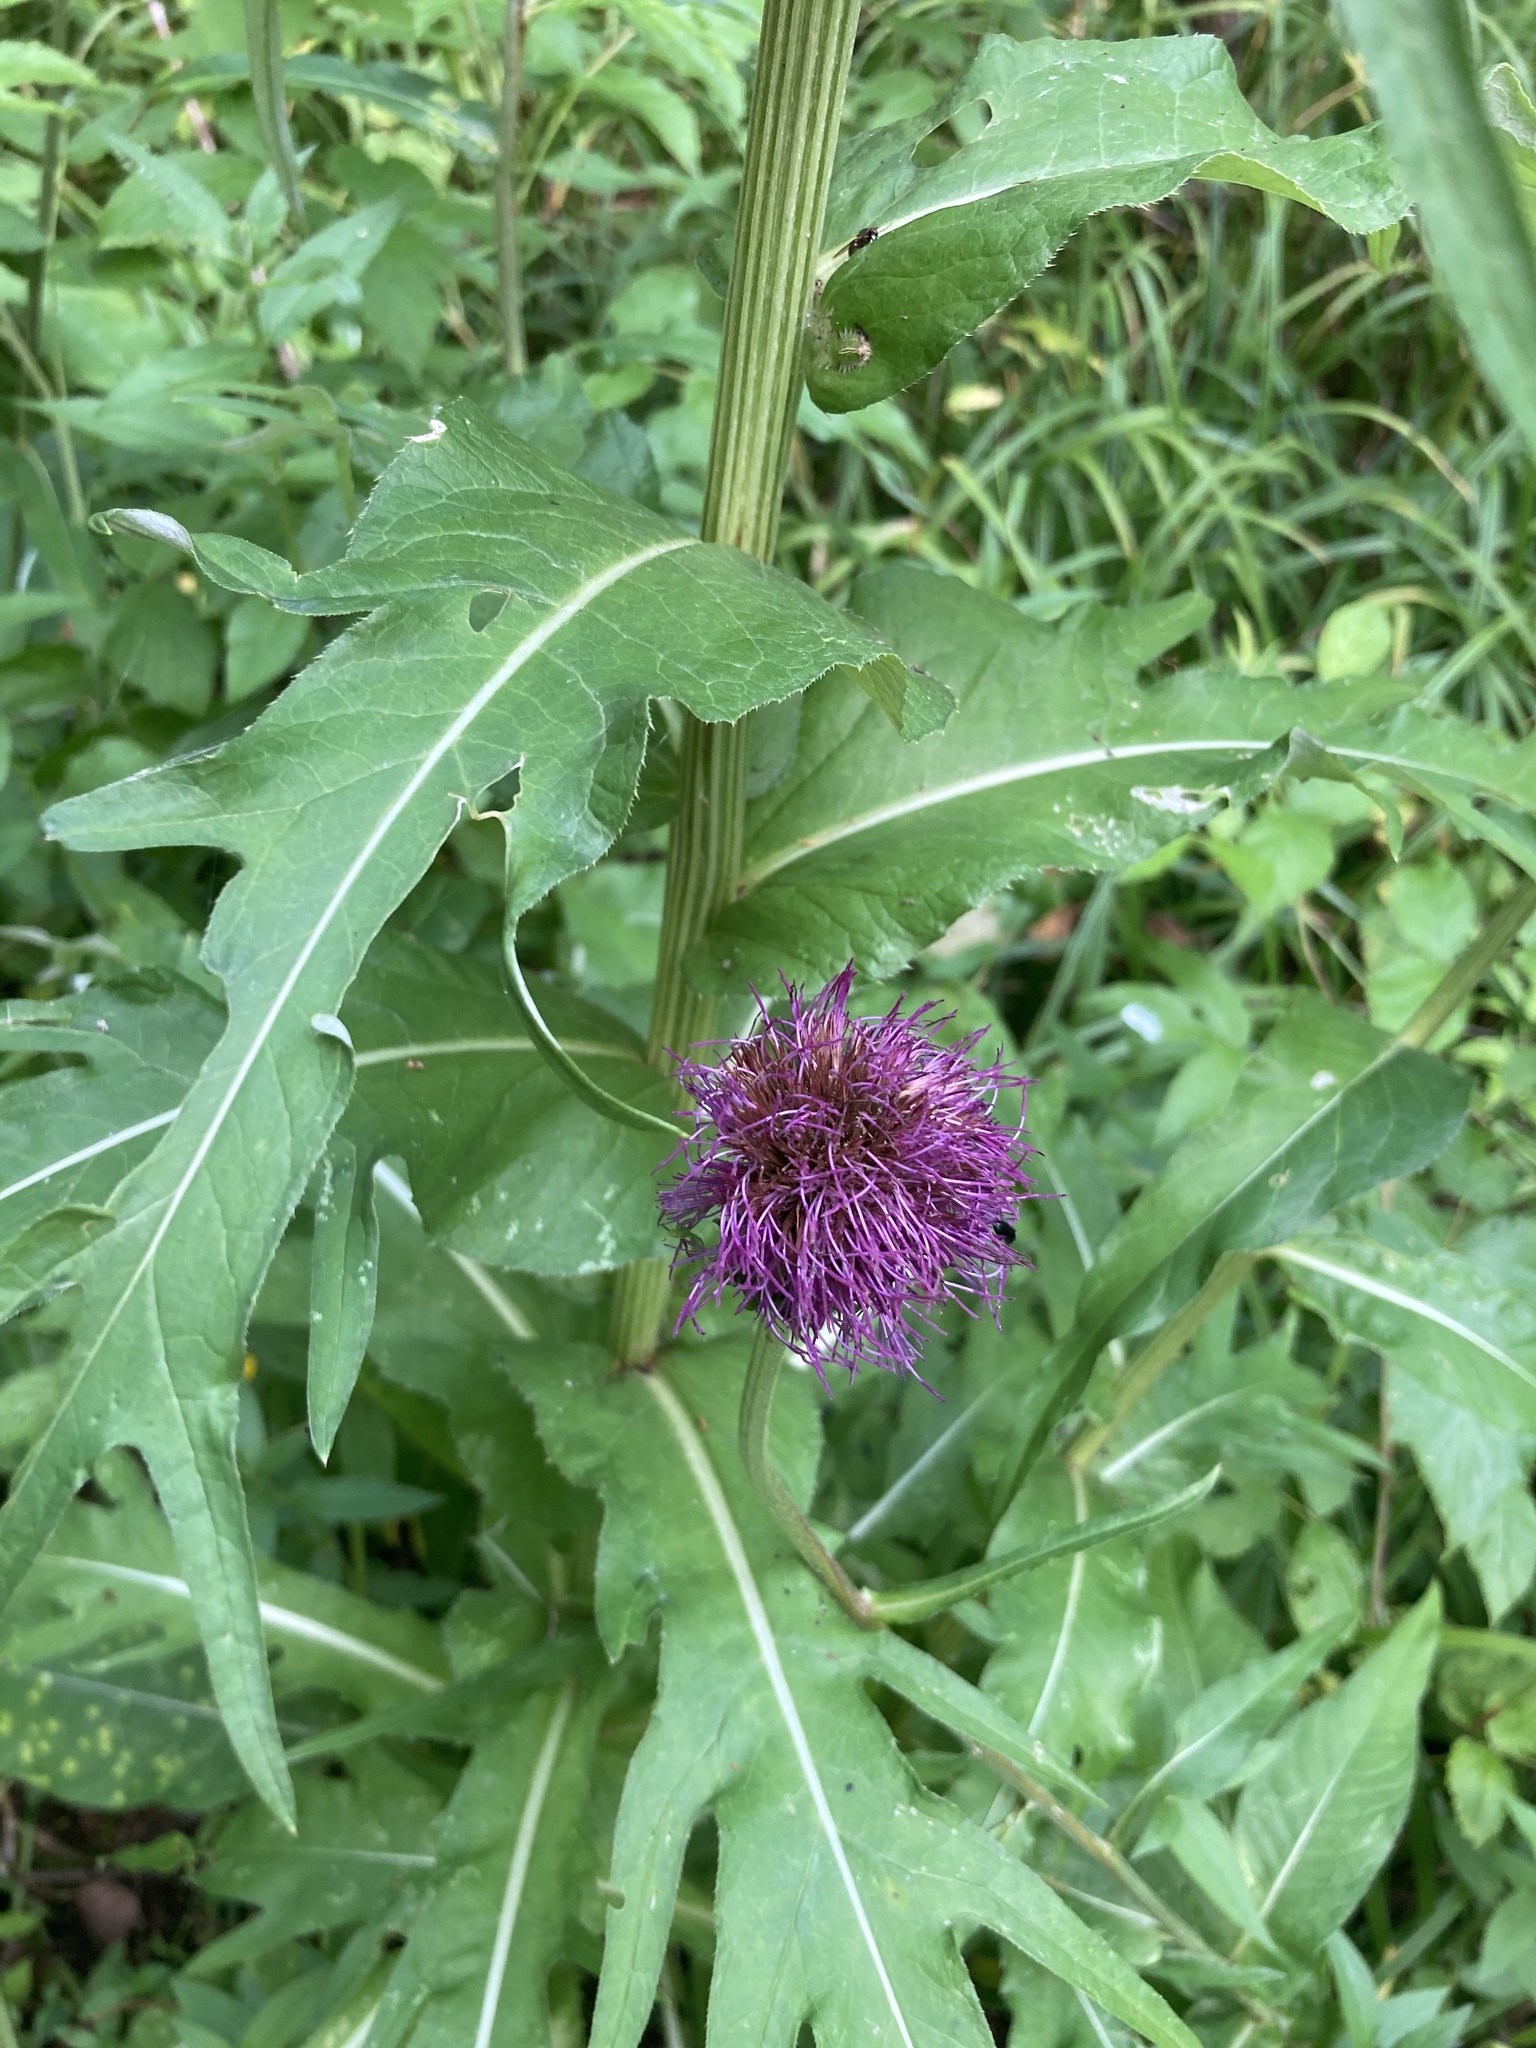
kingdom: Plantae
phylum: Tracheophyta
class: Magnoliopsida
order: Asterales
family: Asteraceae
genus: Cirsium
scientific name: Cirsium heterophyllum
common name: Melancholy thistle
